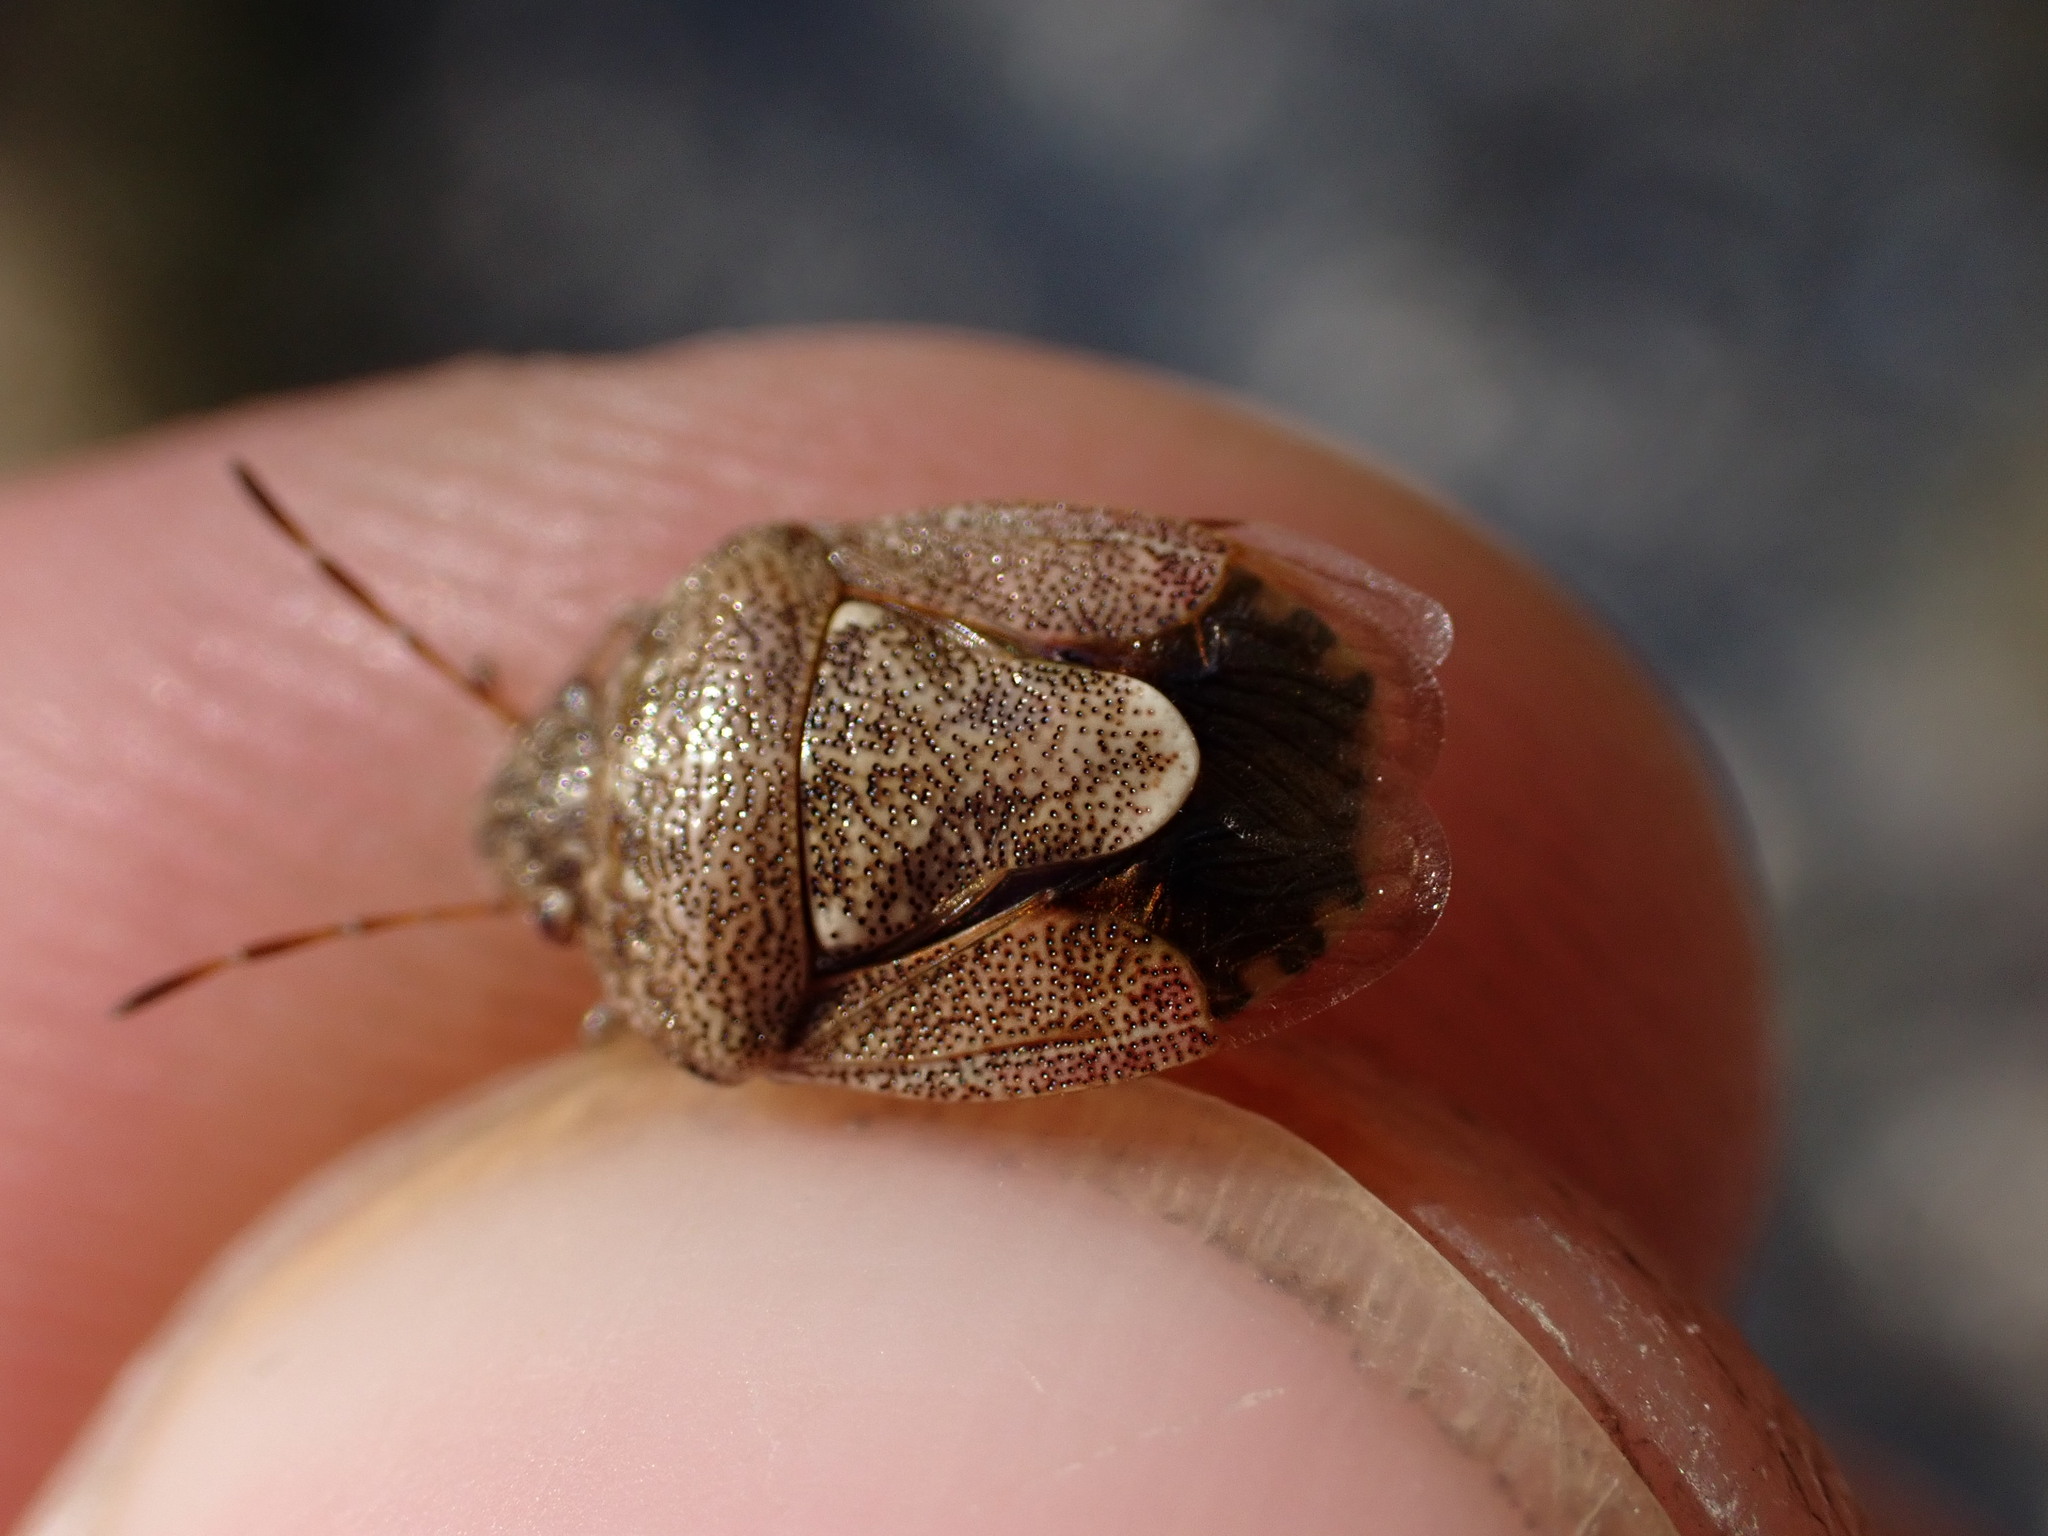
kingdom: Animalia
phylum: Arthropoda
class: Insecta
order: Hemiptera
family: Pentatomidae
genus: Staria
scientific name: Staria lunata
